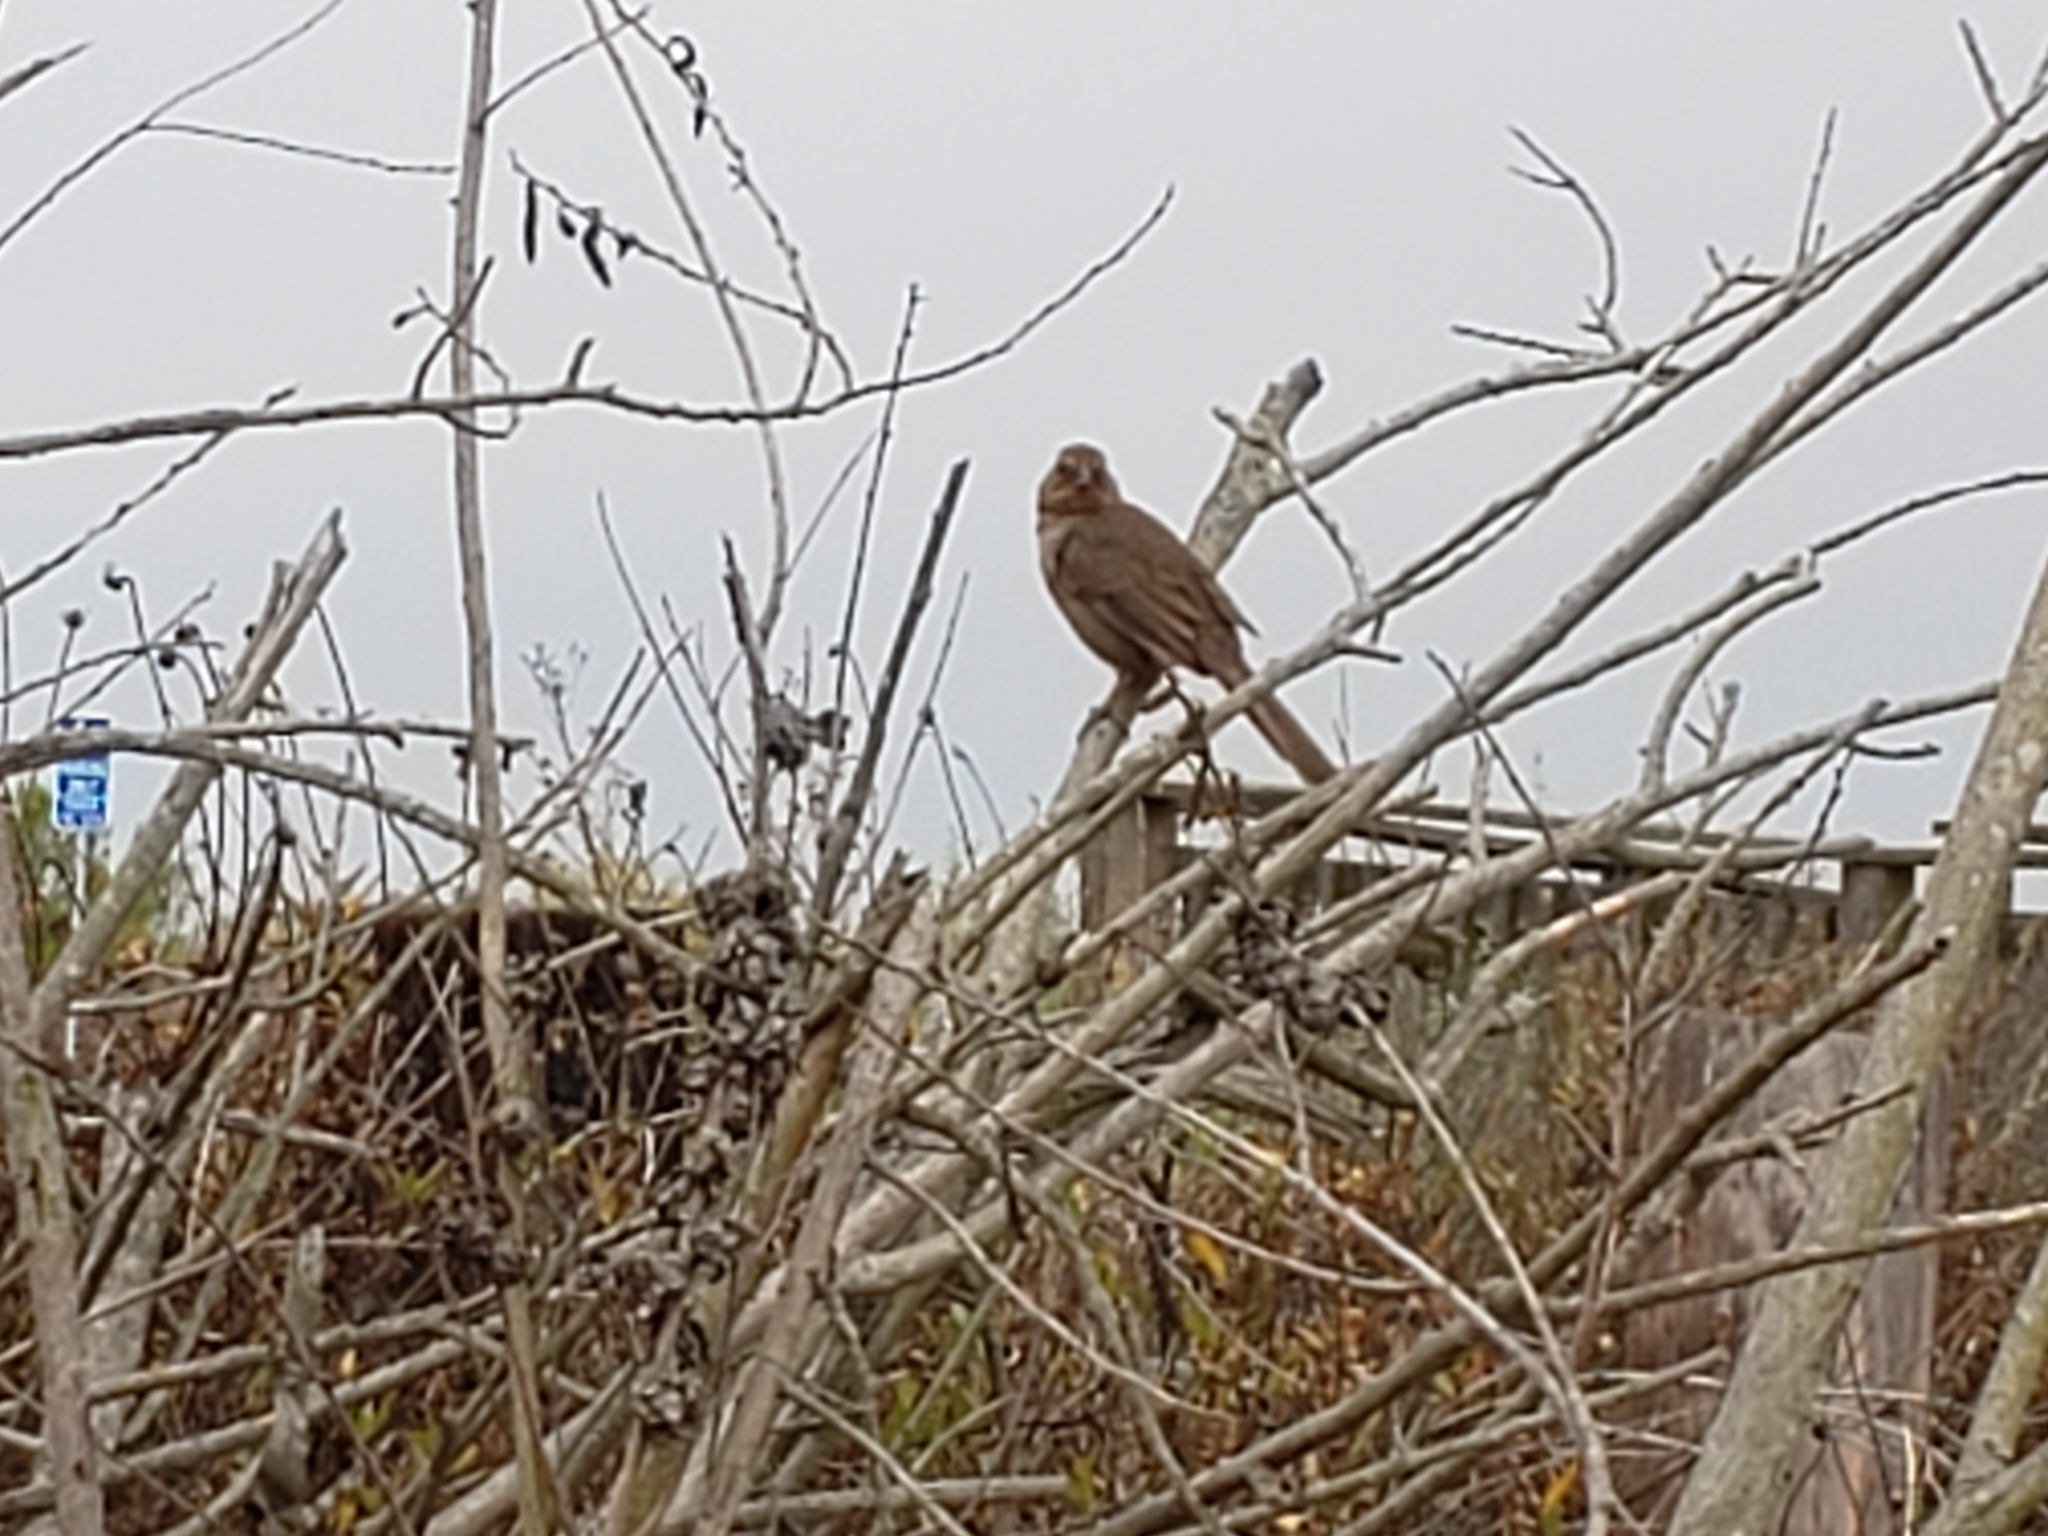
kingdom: Animalia
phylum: Chordata
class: Aves
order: Passeriformes
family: Passerellidae
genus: Melozone
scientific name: Melozone crissalis
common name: California towhee
